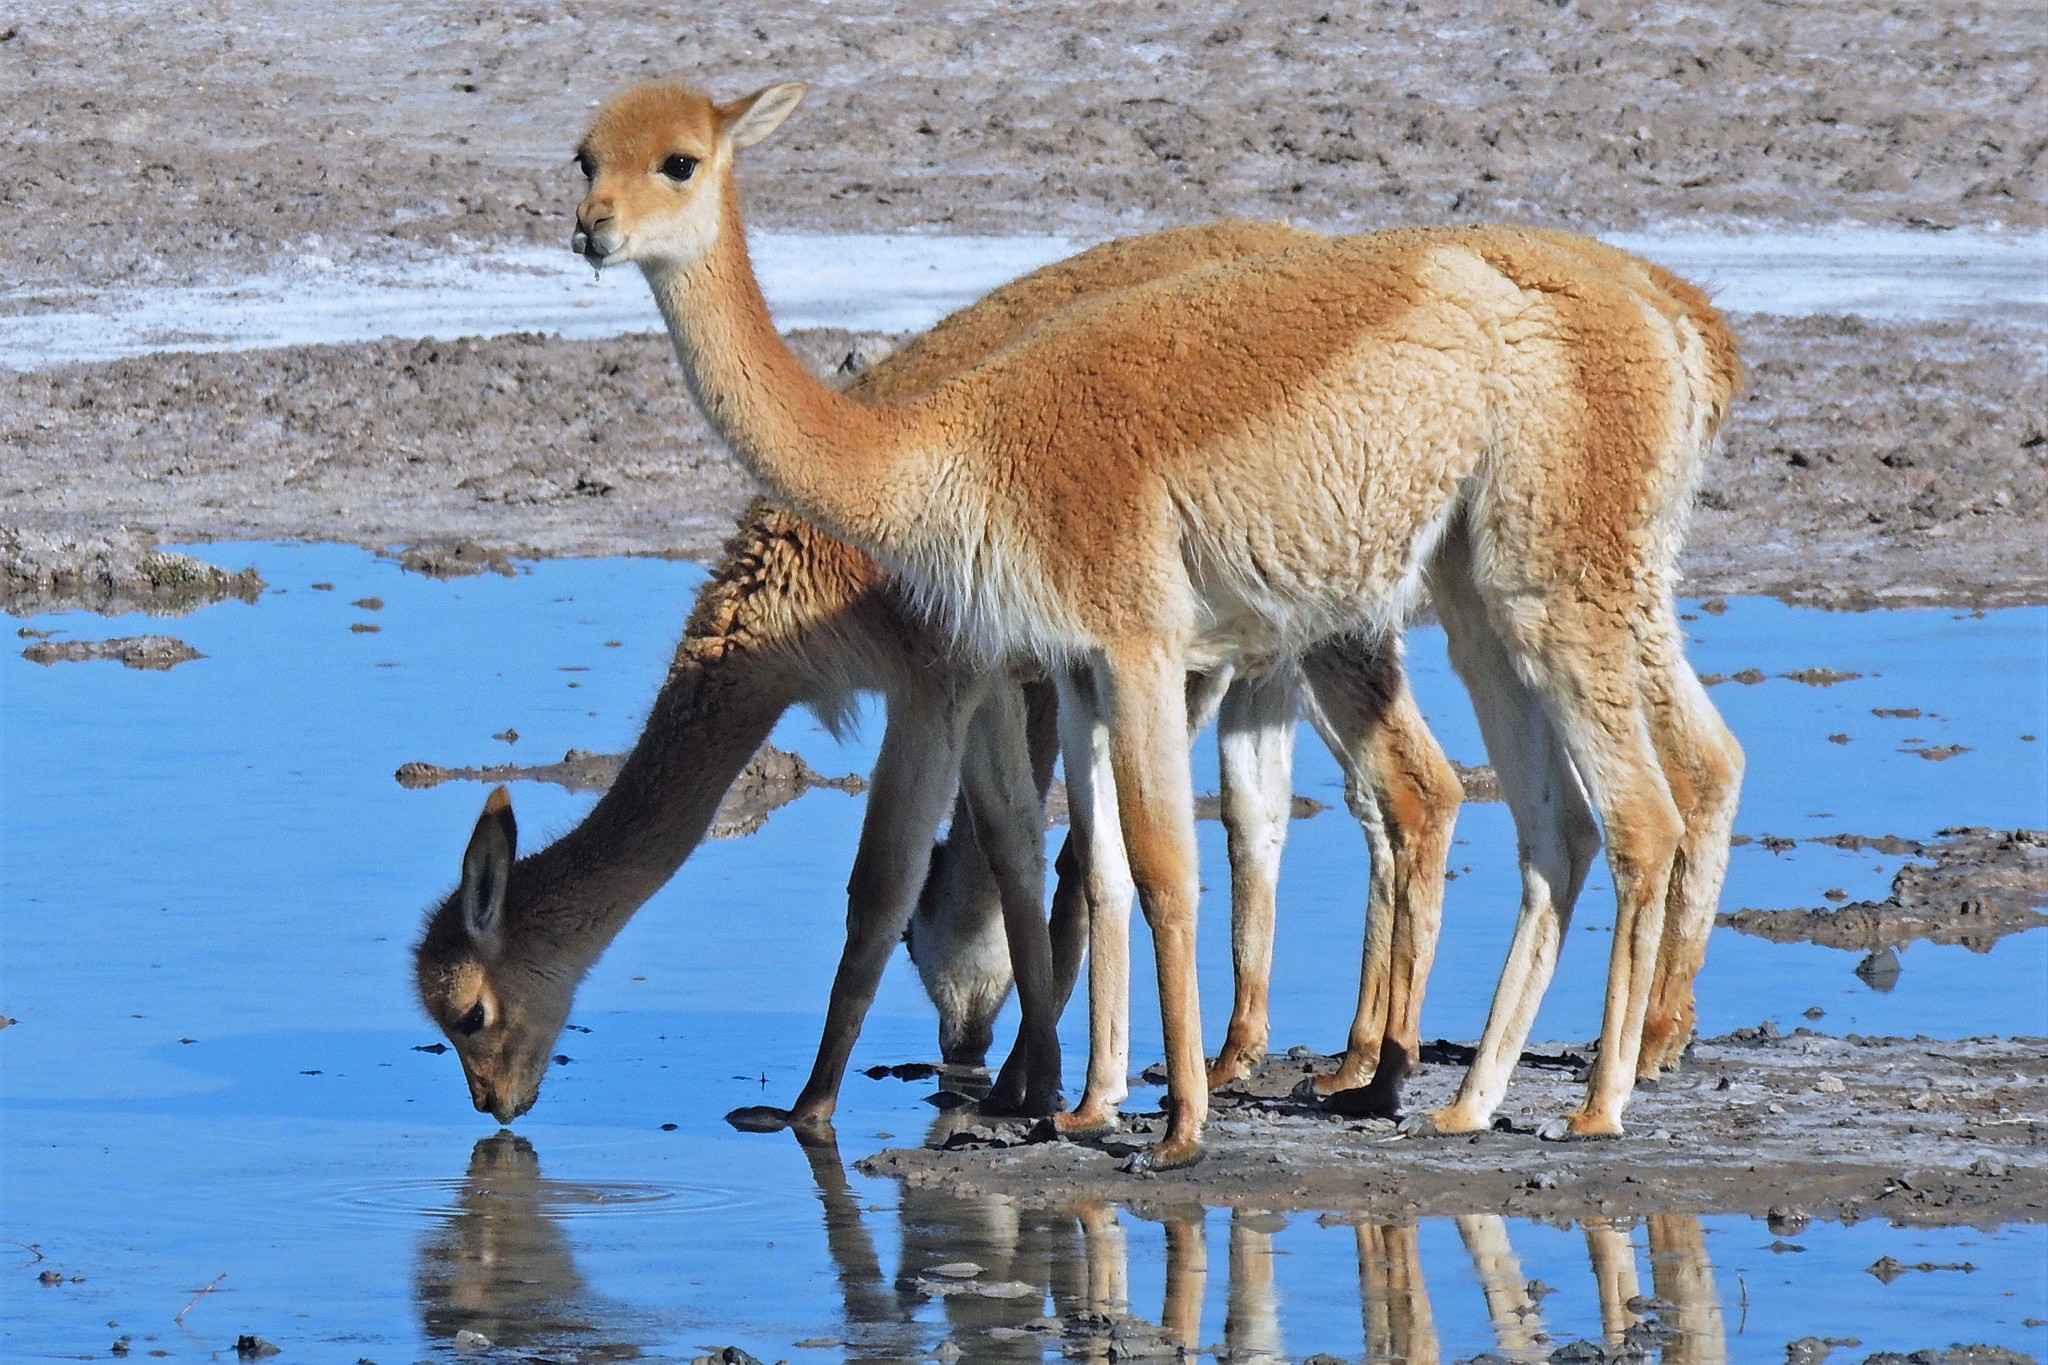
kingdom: Animalia
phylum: Chordata
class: Mammalia
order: Artiodactyla
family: Camelidae
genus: Vicugna
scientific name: Vicugna vicugna
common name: Vicugna
